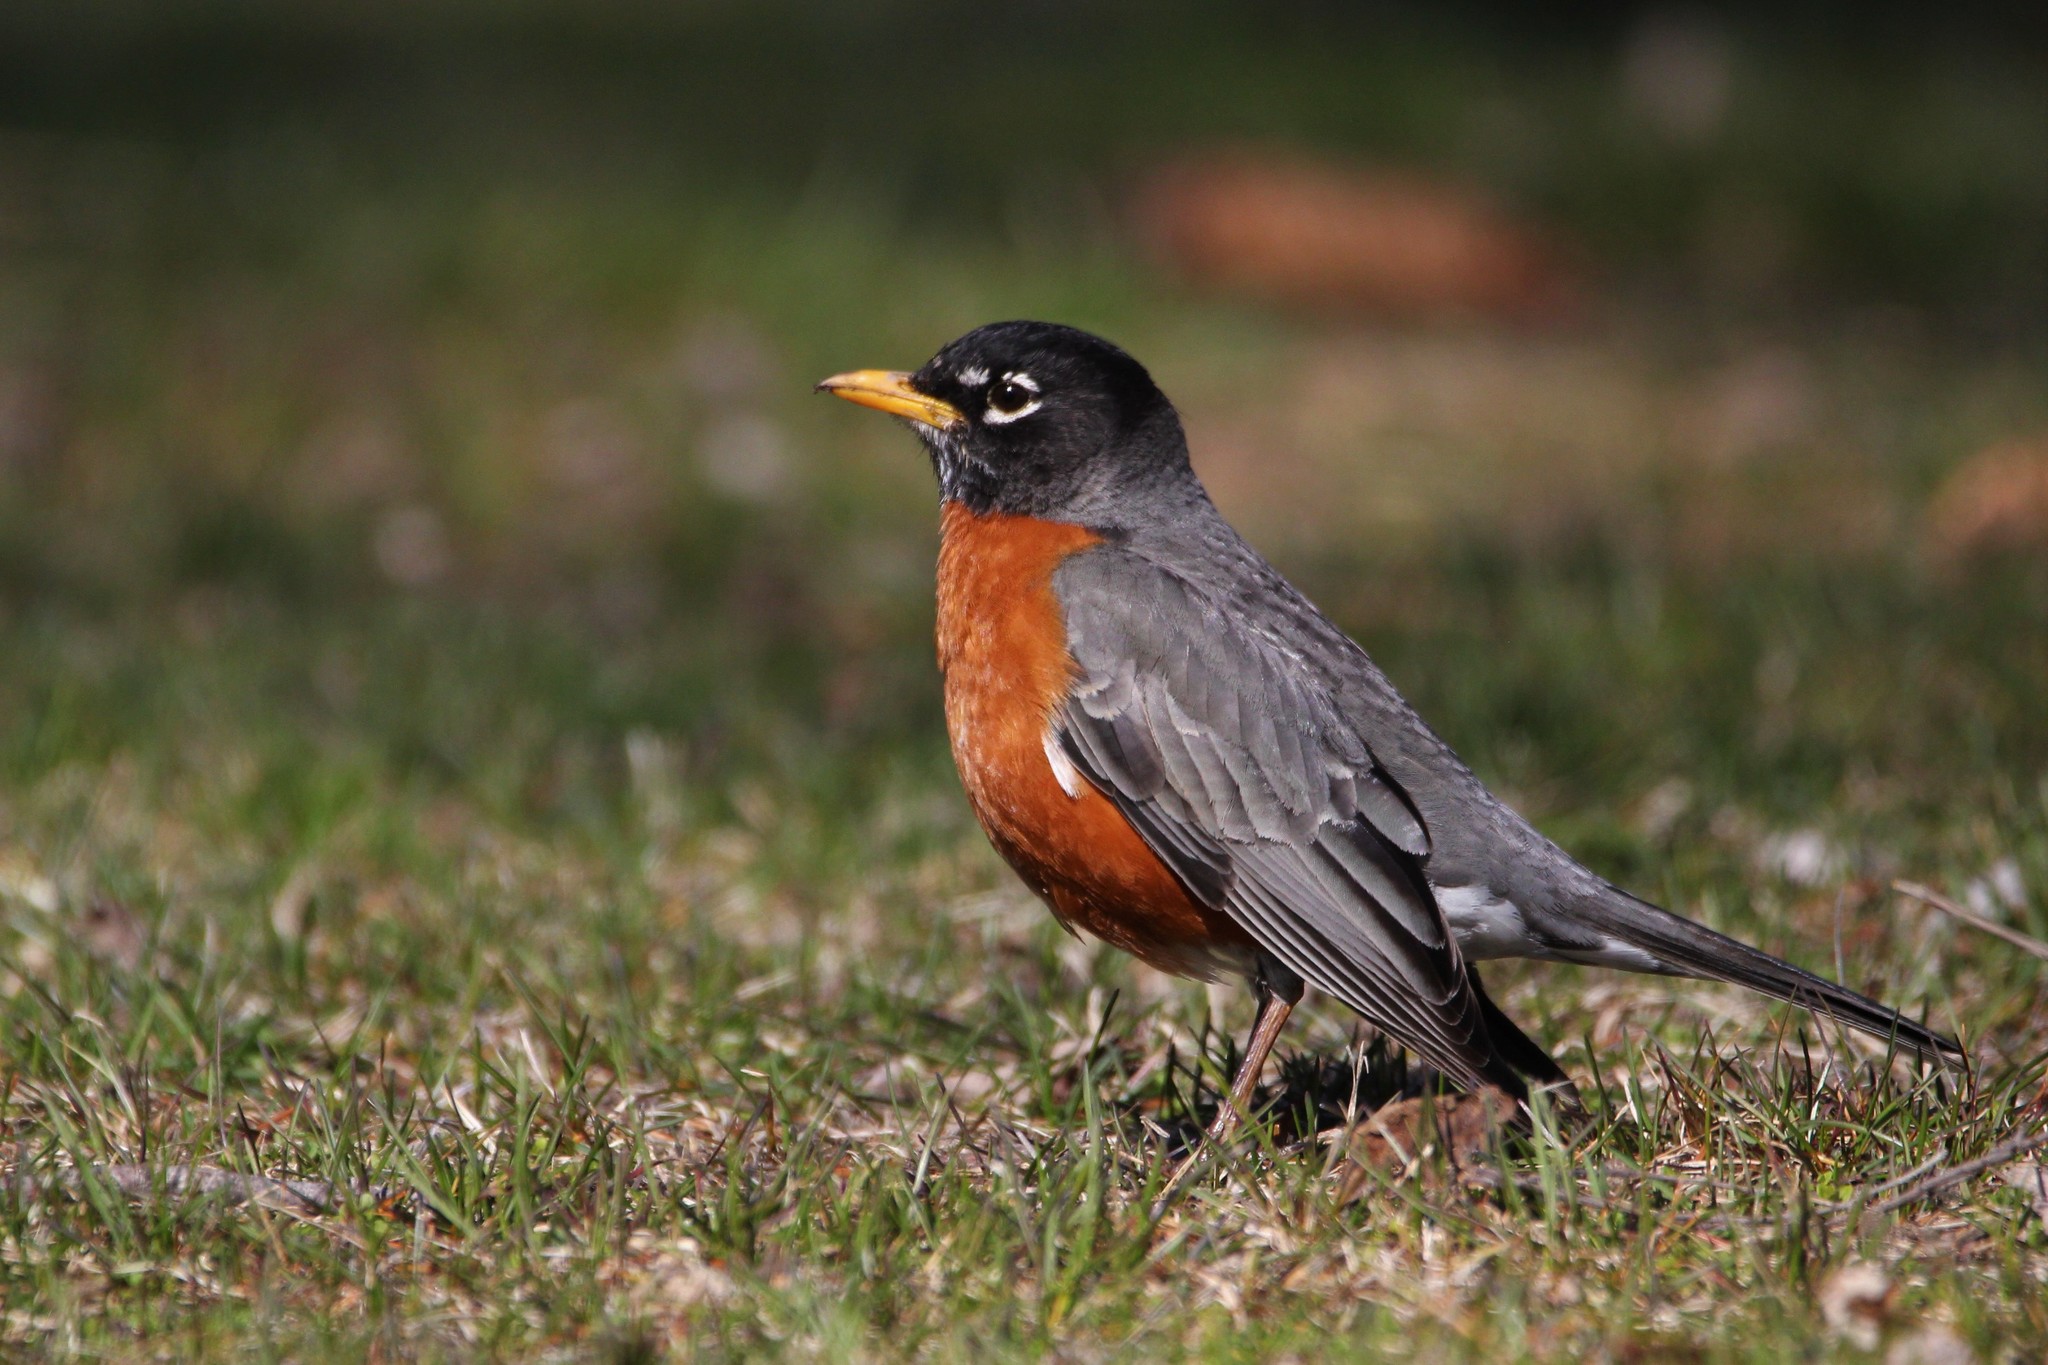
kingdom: Animalia
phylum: Chordata
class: Aves
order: Passeriformes
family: Turdidae
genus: Turdus
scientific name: Turdus migratorius
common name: American robin
